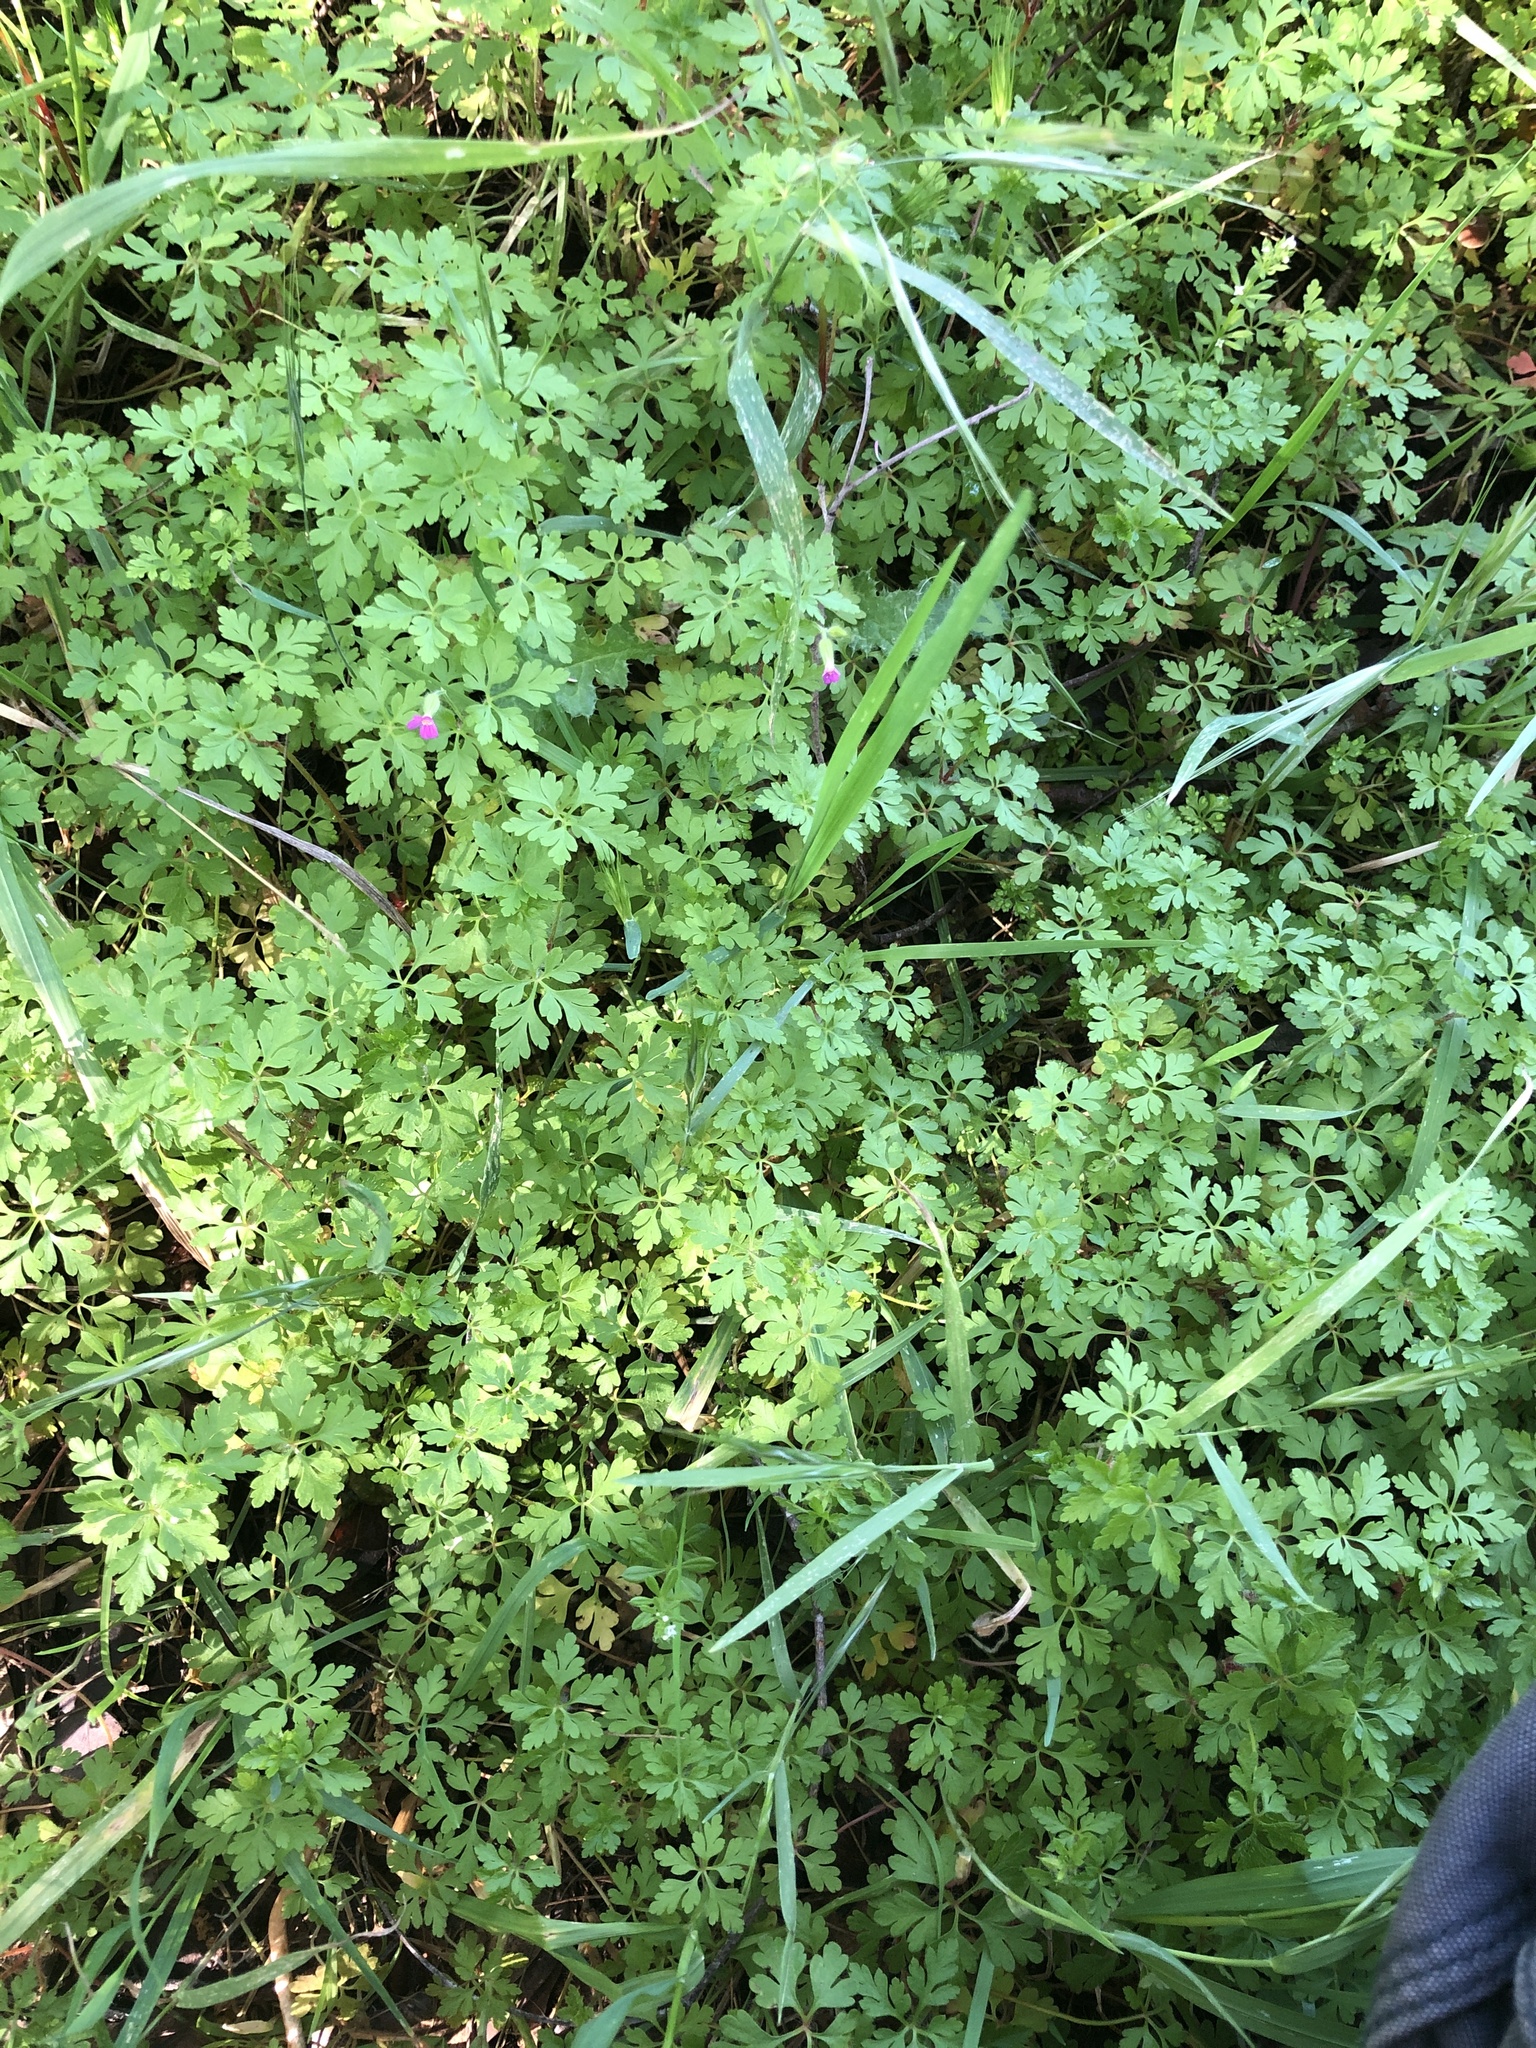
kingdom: Plantae
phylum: Tracheophyta
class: Magnoliopsida
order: Geraniales
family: Geraniaceae
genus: Geranium
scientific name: Geranium purpureum
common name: Little-robin
